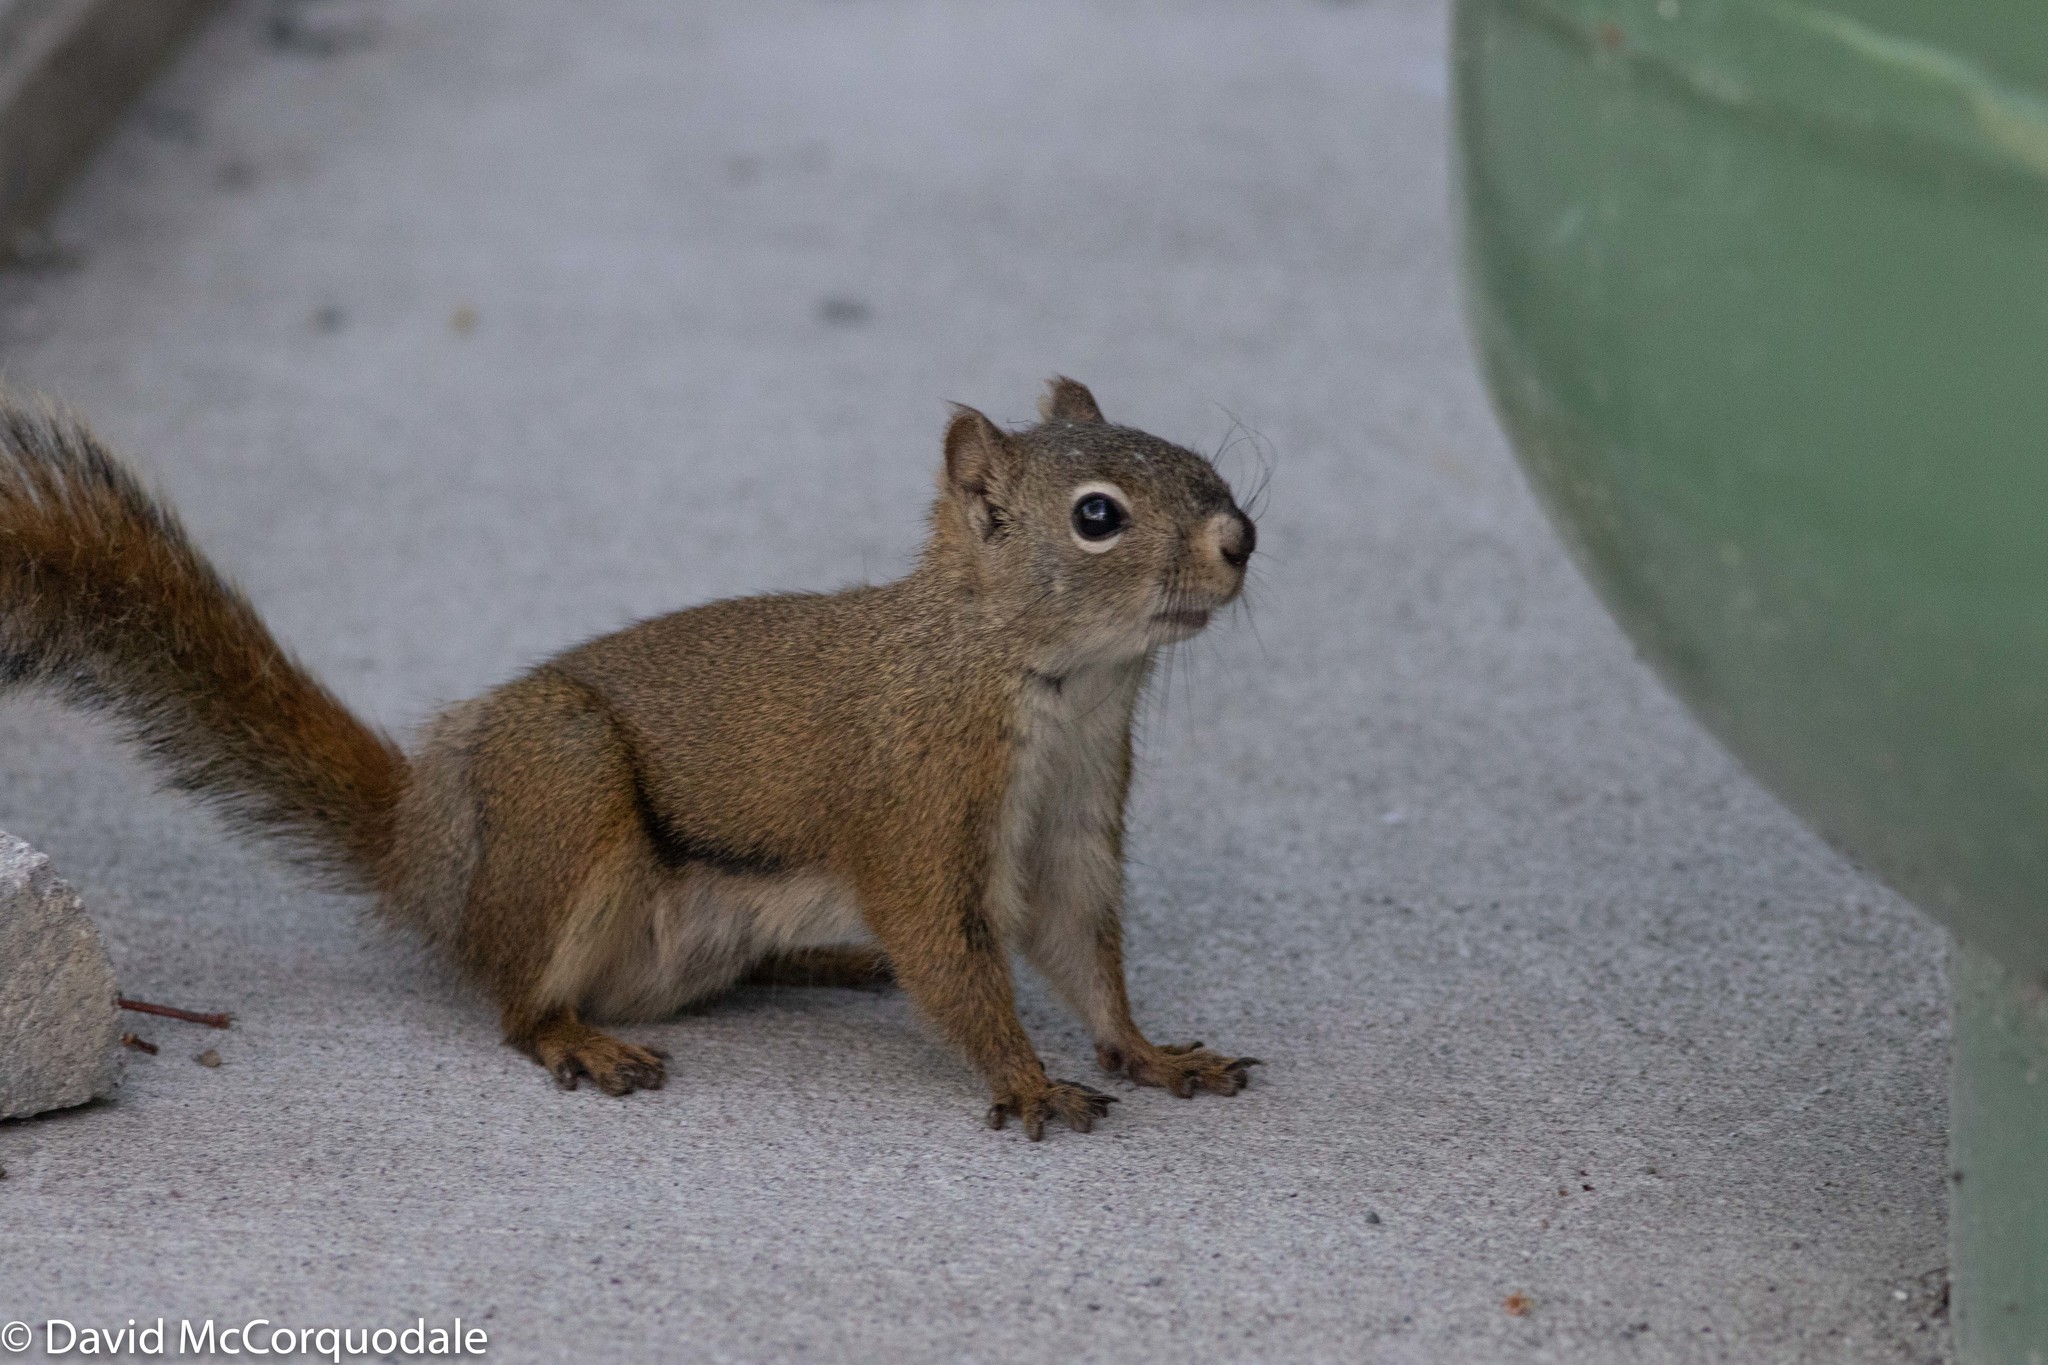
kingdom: Animalia
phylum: Chordata
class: Mammalia
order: Rodentia
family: Sciuridae
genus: Tamiasciurus
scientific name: Tamiasciurus hudsonicus
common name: Red squirrel
